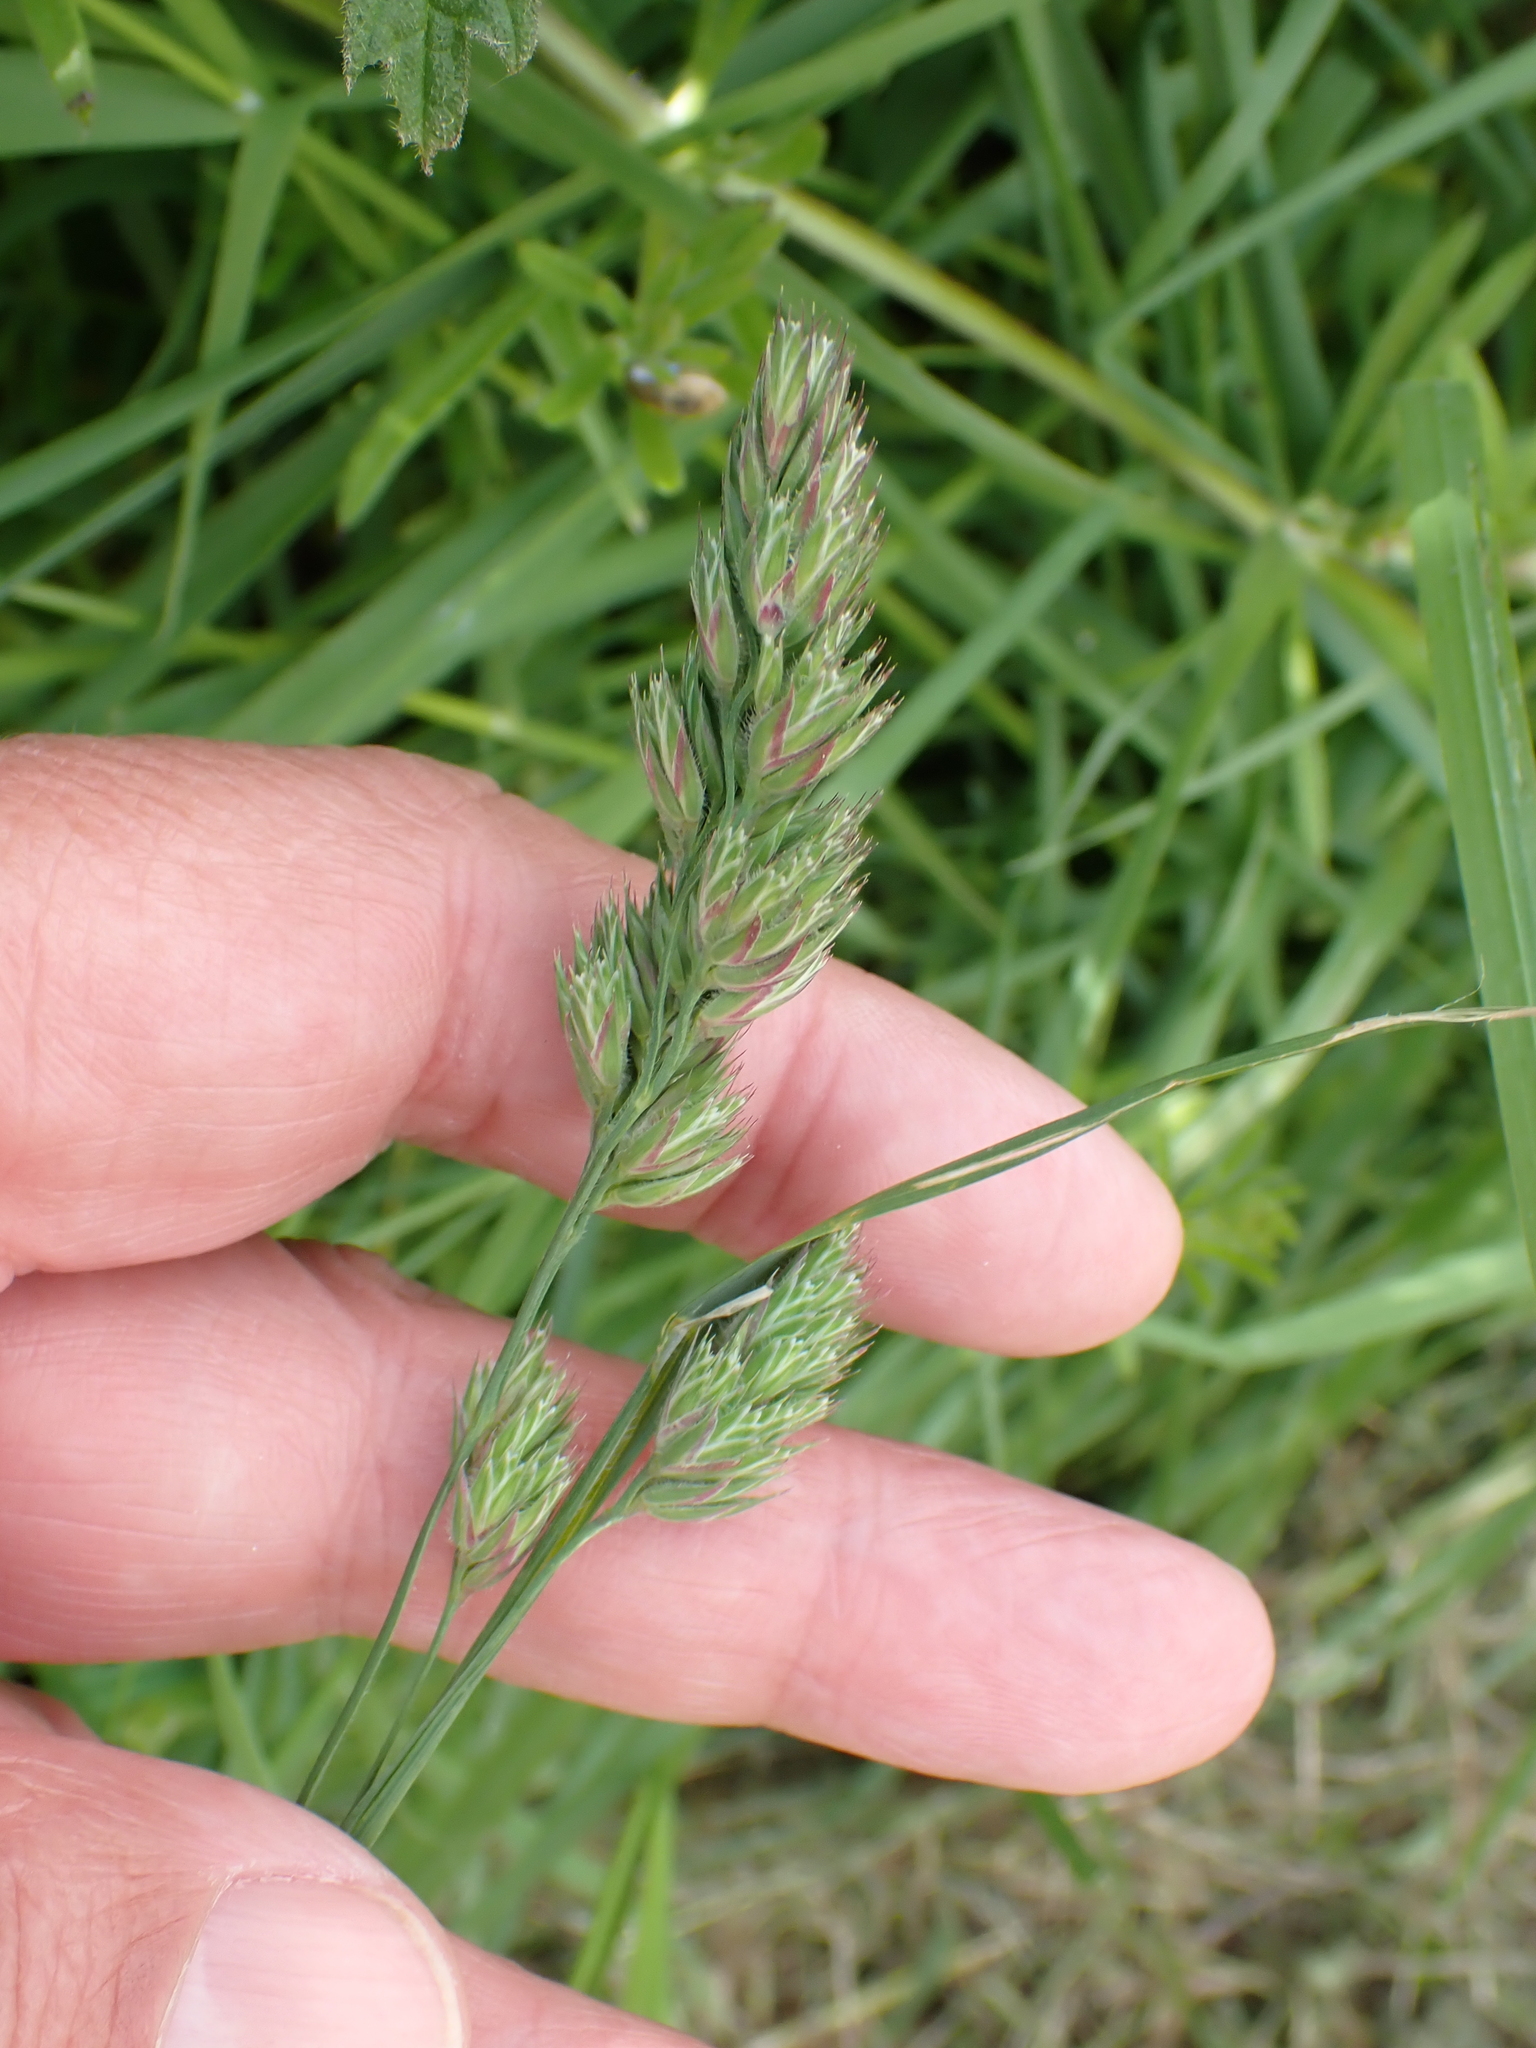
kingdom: Plantae
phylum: Tracheophyta
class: Liliopsida
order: Poales
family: Poaceae
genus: Dactylis
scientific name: Dactylis glomerata
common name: Orchardgrass
